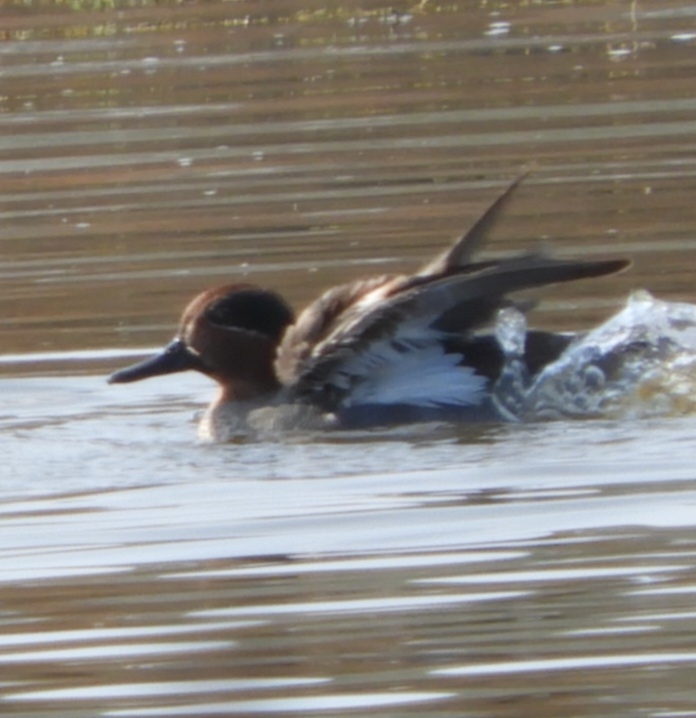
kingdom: Animalia
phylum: Chordata
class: Aves
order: Anseriformes
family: Anatidae
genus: Anas
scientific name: Anas crecca
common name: Eurasian teal
